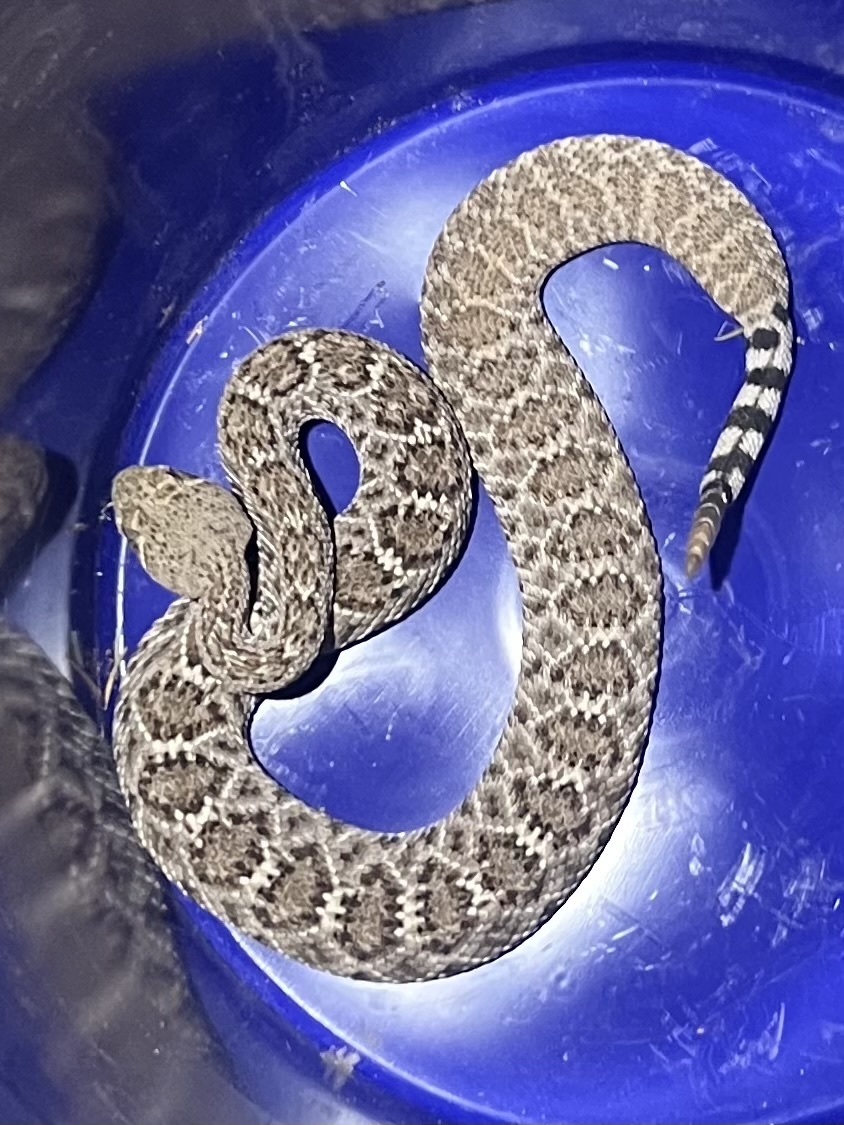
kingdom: Animalia
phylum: Chordata
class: Squamata
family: Viperidae
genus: Crotalus
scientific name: Crotalus atrox
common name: Western diamond-backed rattlesnake
